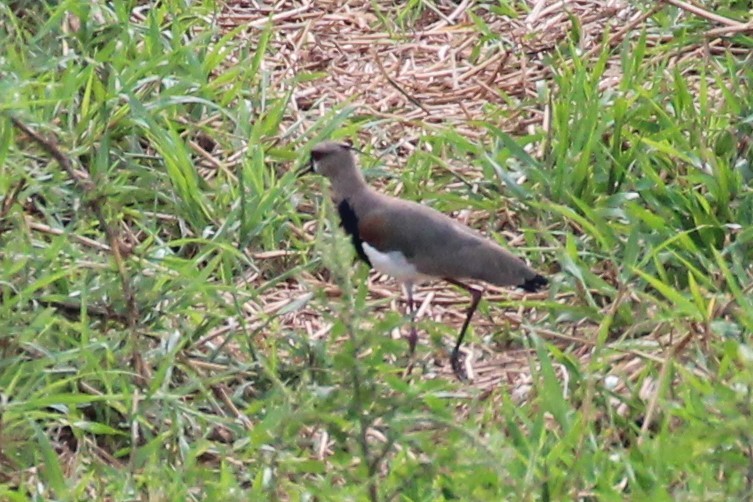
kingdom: Animalia
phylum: Chordata
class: Aves
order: Charadriiformes
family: Charadriidae
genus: Vanellus
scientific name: Vanellus chilensis
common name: Southern lapwing
